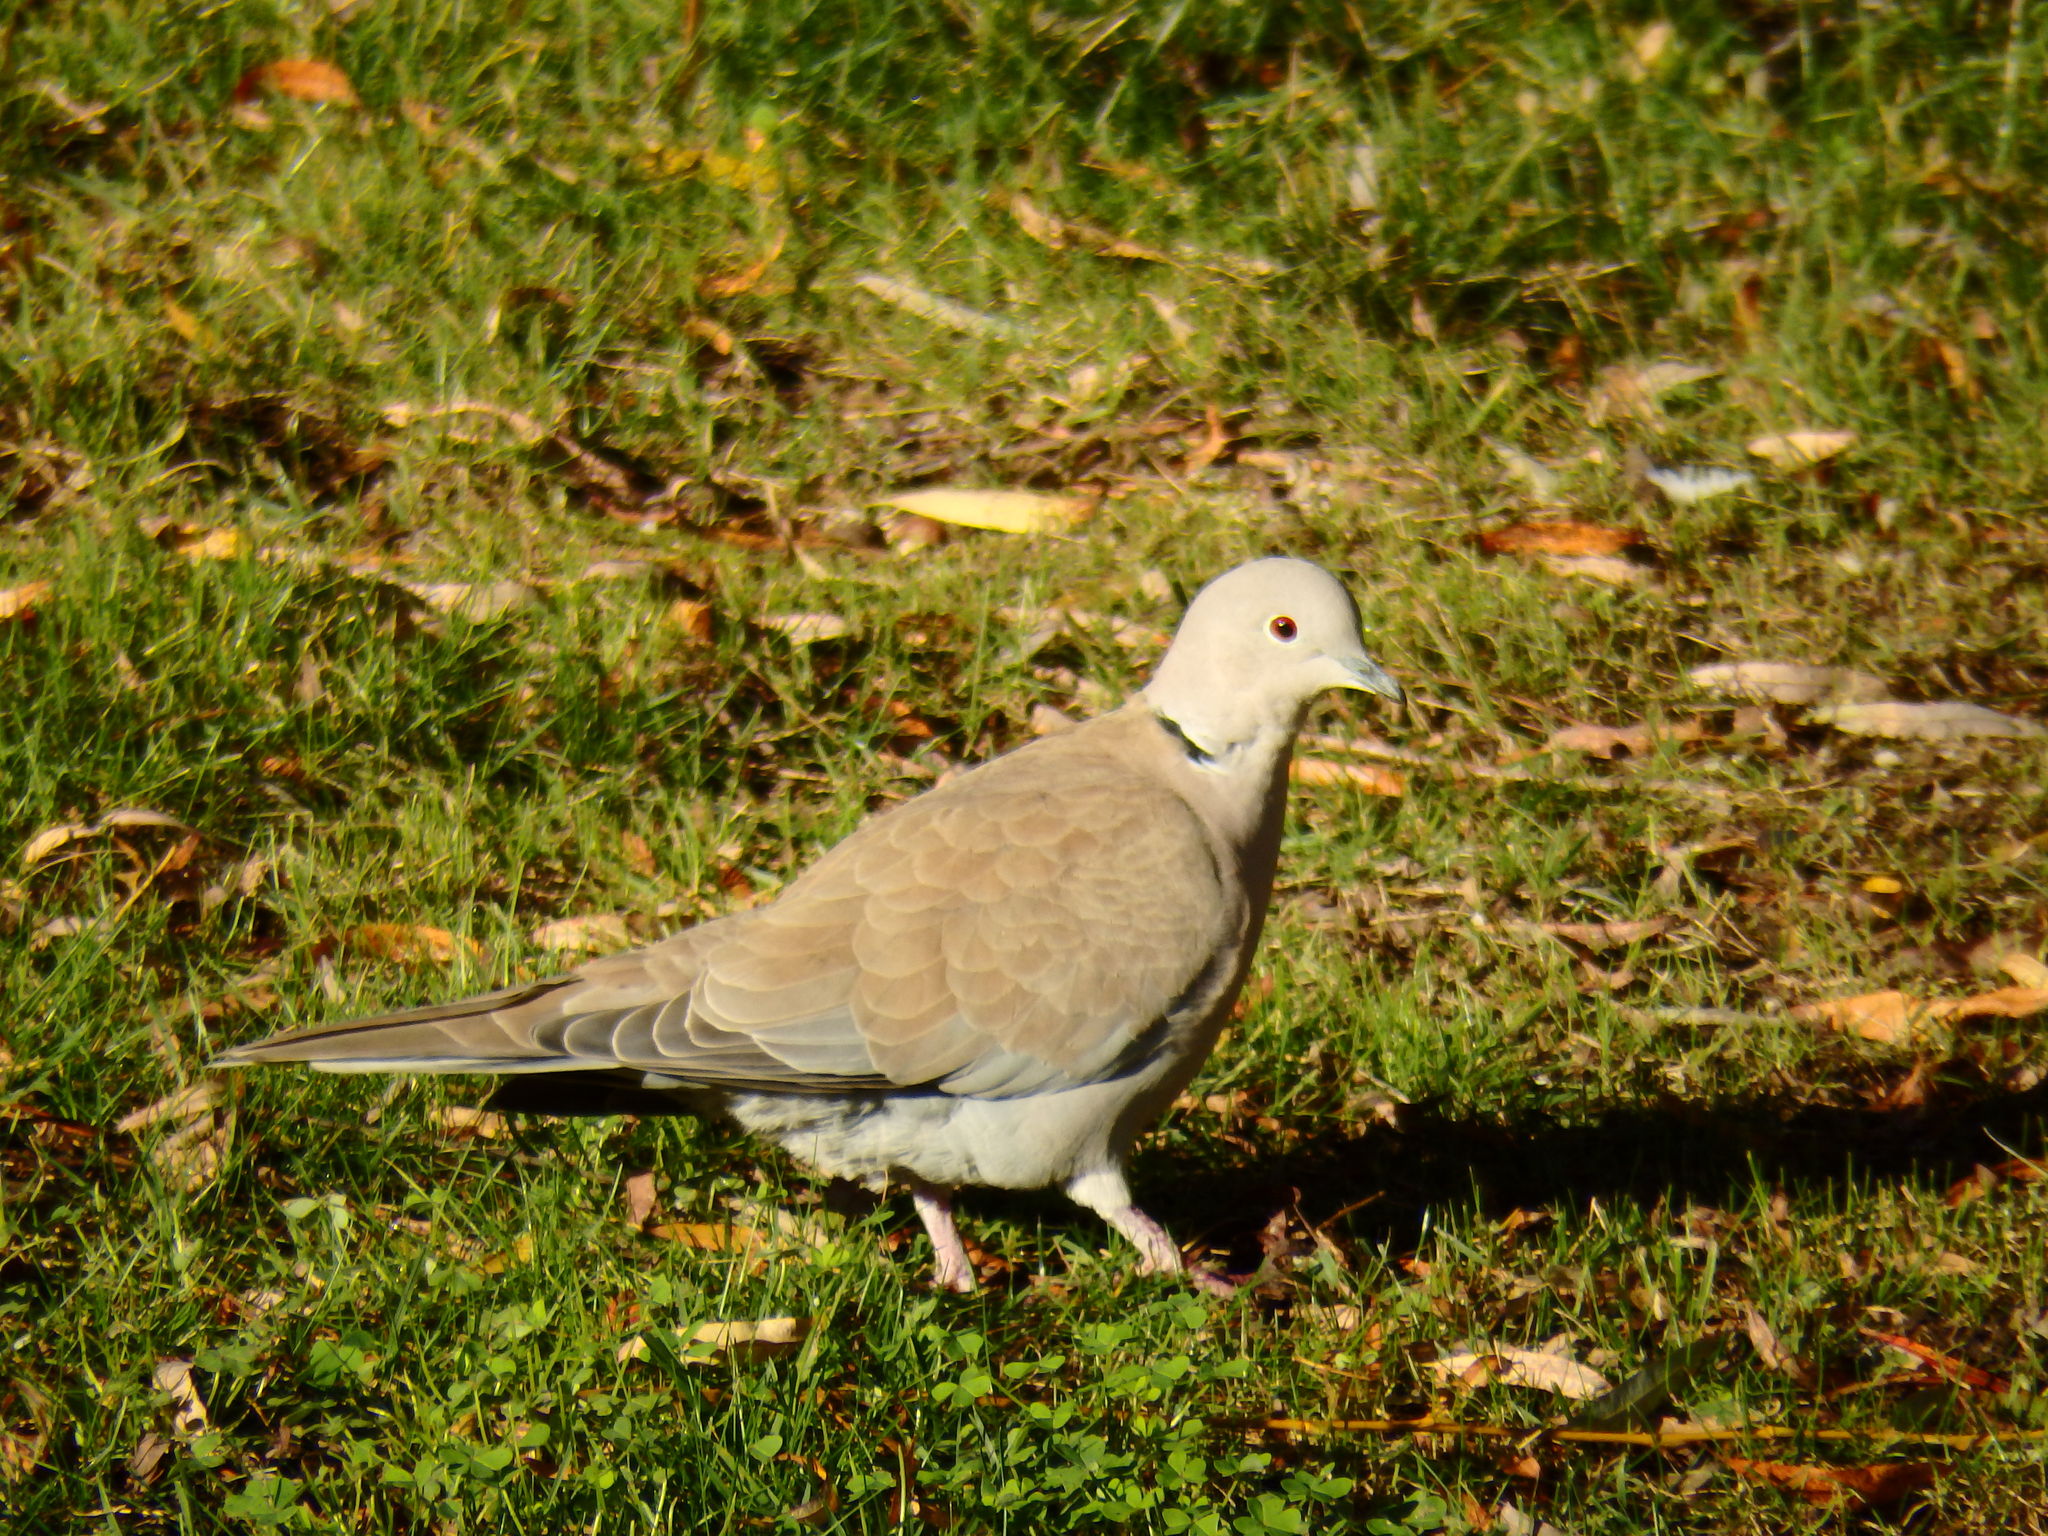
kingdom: Animalia
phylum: Chordata
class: Aves
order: Columbiformes
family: Columbidae
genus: Streptopelia
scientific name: Streptopelia decaocto
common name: Eurasian collared dove
